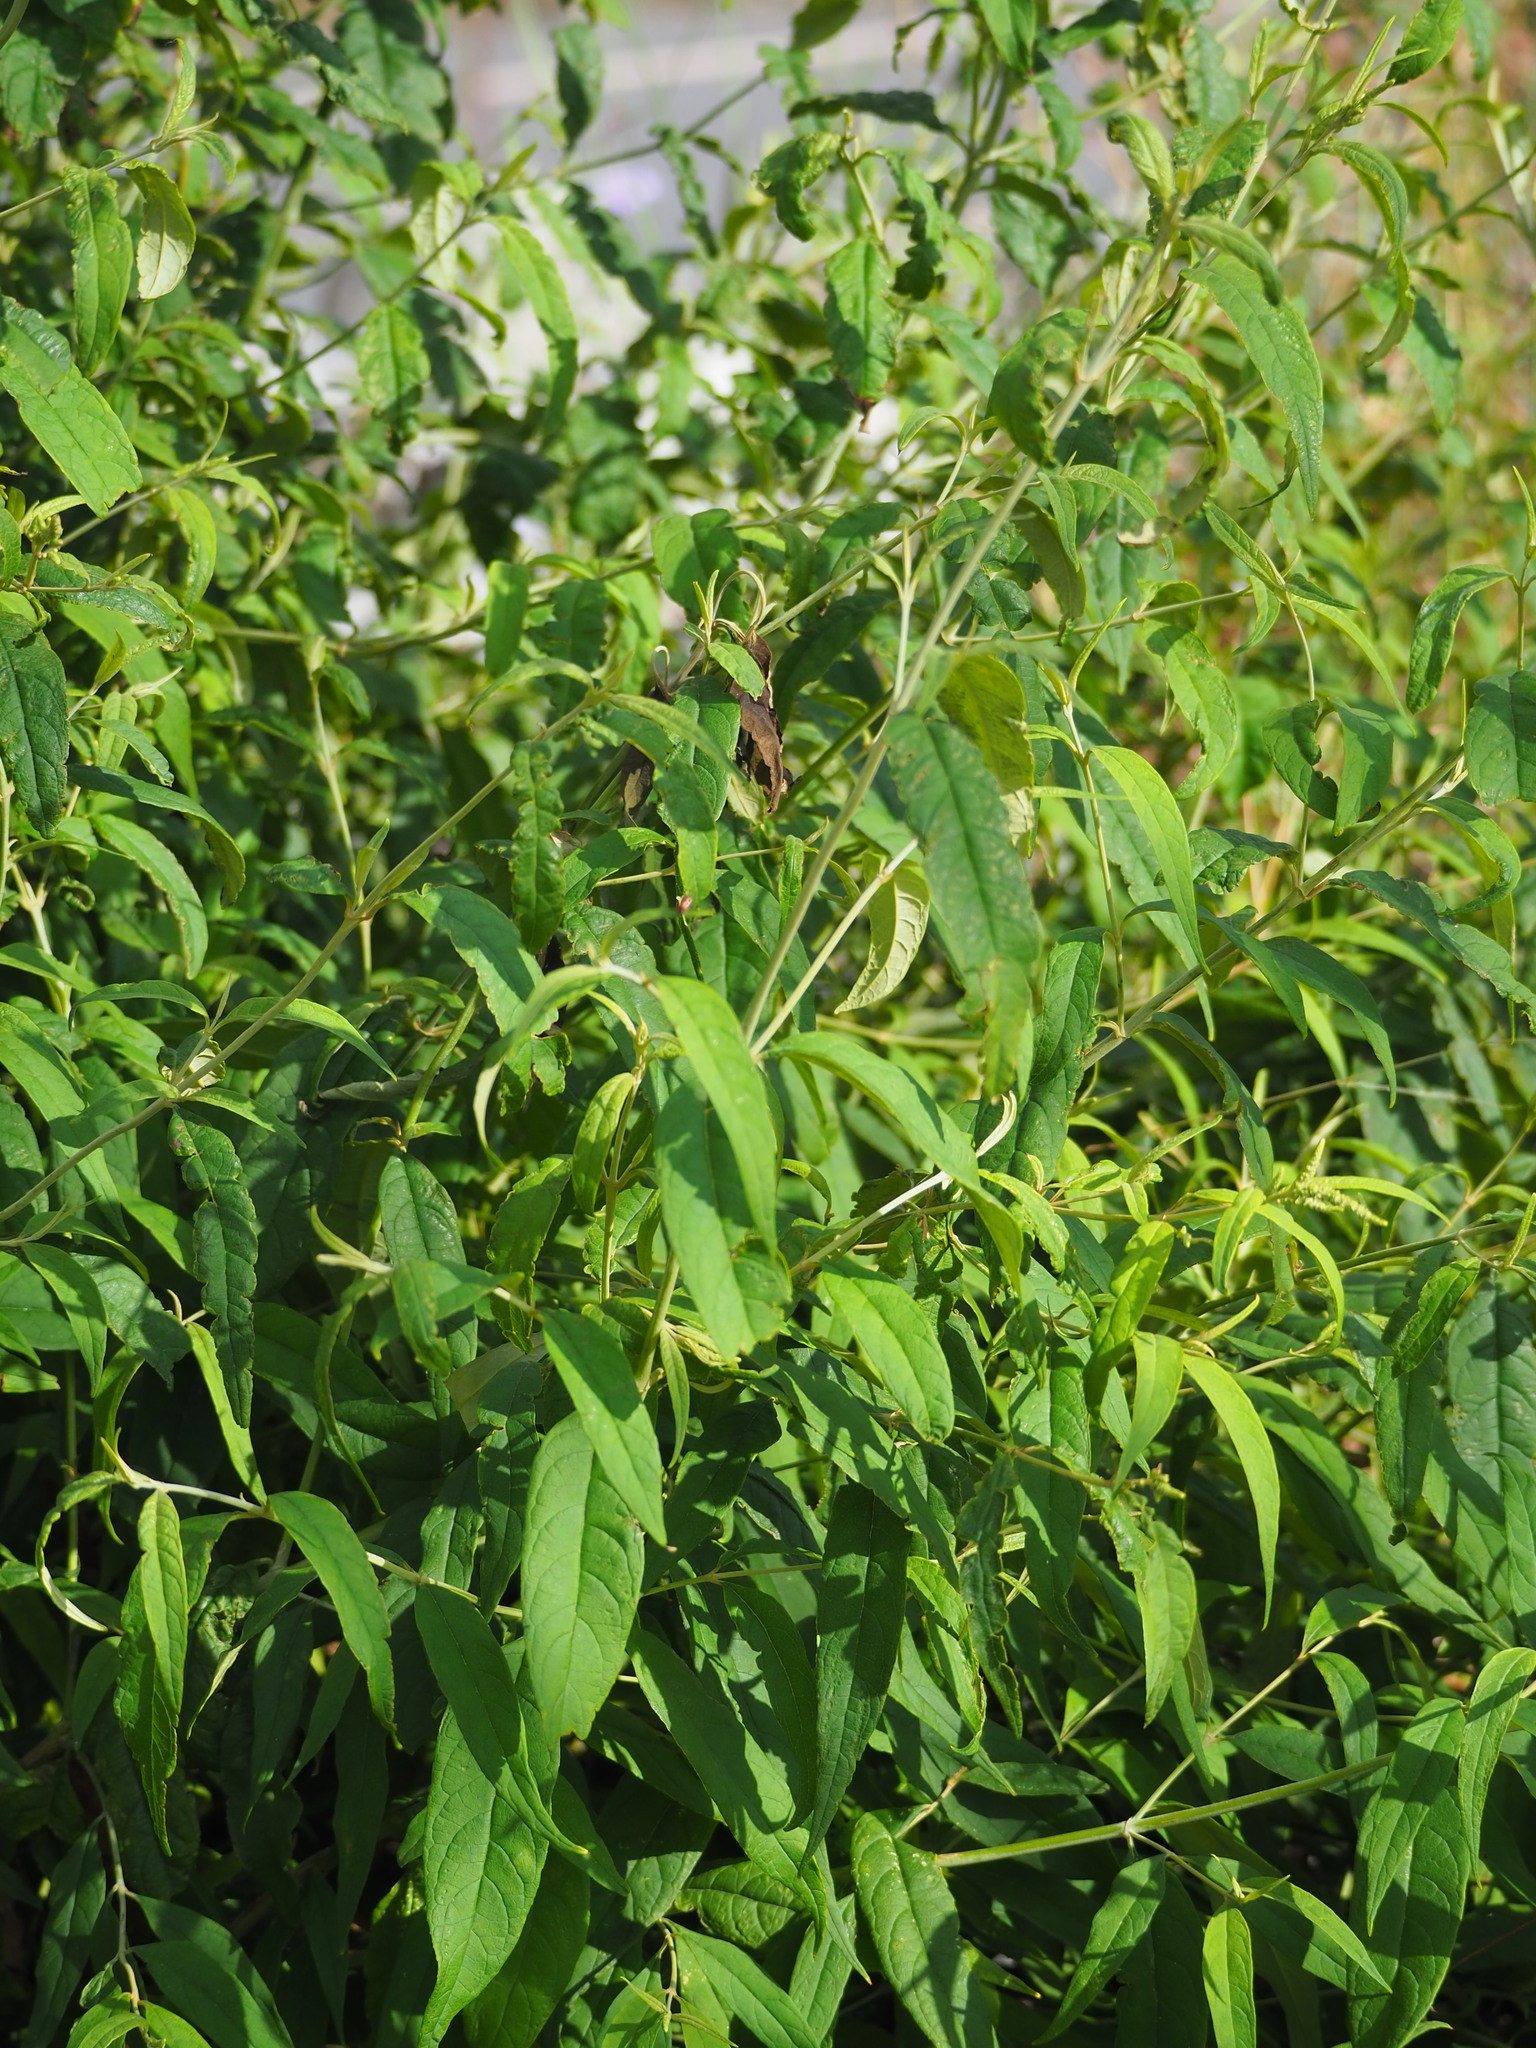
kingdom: Plantae
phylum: Tracheophyta
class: Magnoliopsida
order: Lamiales
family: Scrophulariaceae
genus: Buddleja
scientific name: Buddleja asiatica
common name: Dog tail
